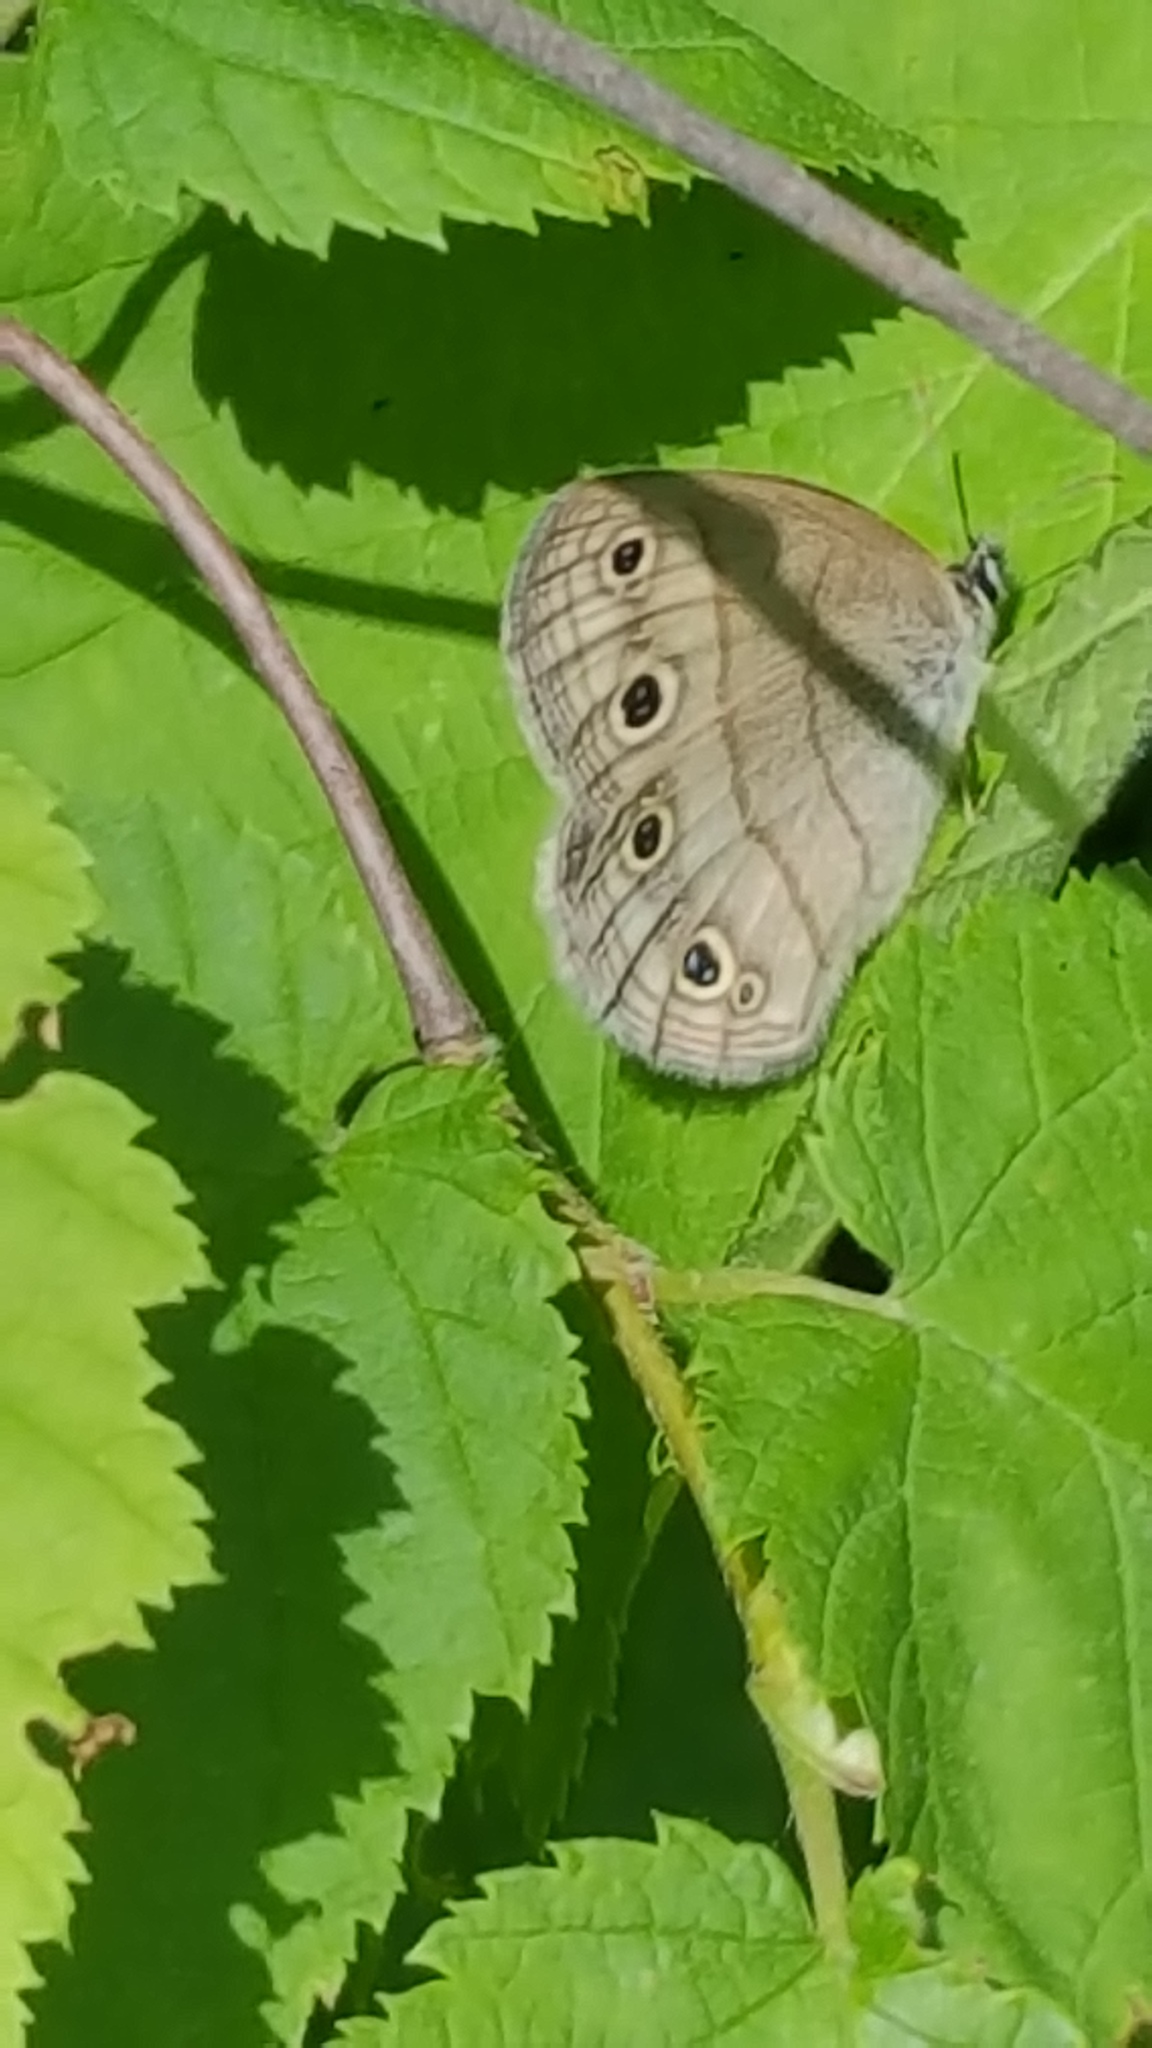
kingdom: Animalia
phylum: Arthropoda
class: Insecta
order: Lepidoptera
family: Nymphalidae
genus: Euptychia
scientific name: Euptychia cymela
